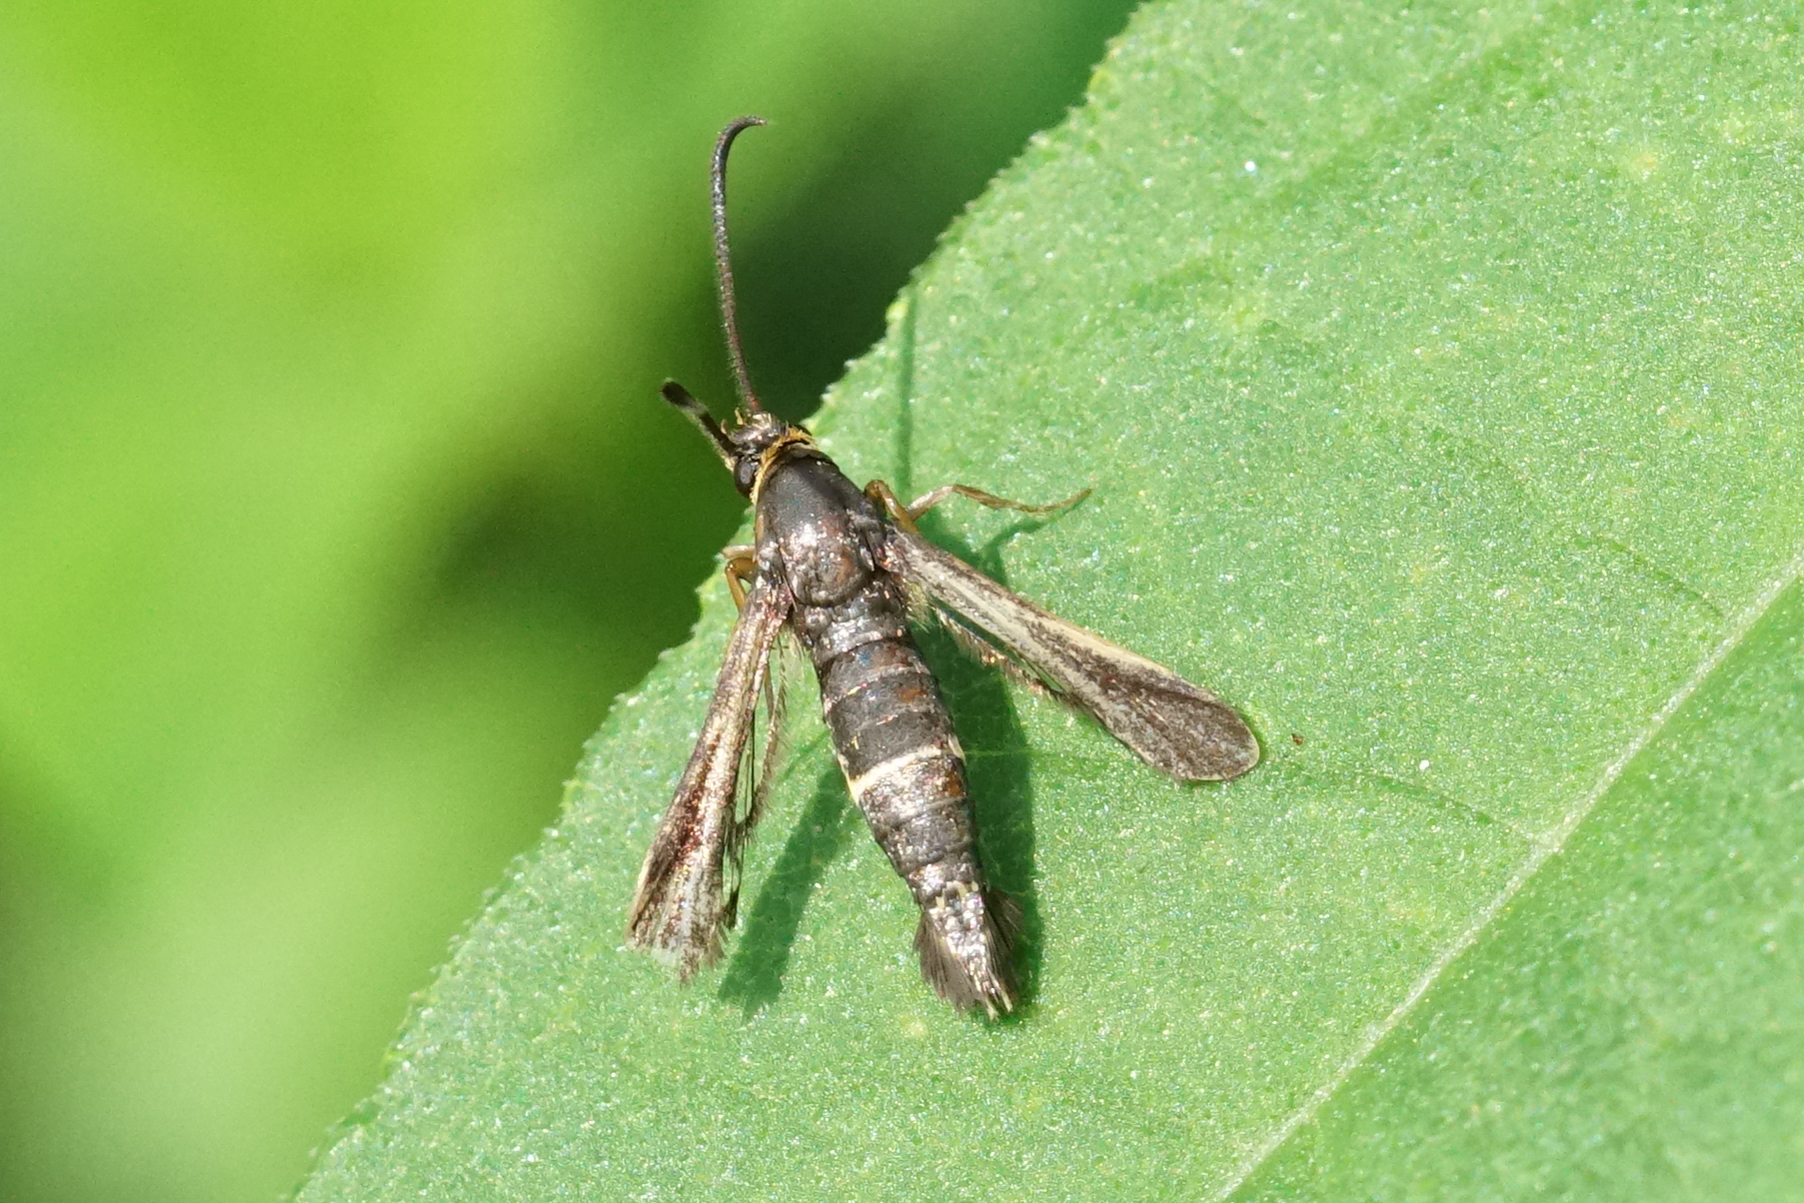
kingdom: Animalia
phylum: Arthropoda
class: Insecta
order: Lepidoptera
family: Sesiidae
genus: Carmenta
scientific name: Carmenta pyralidiformis
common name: Boneset borer moth
